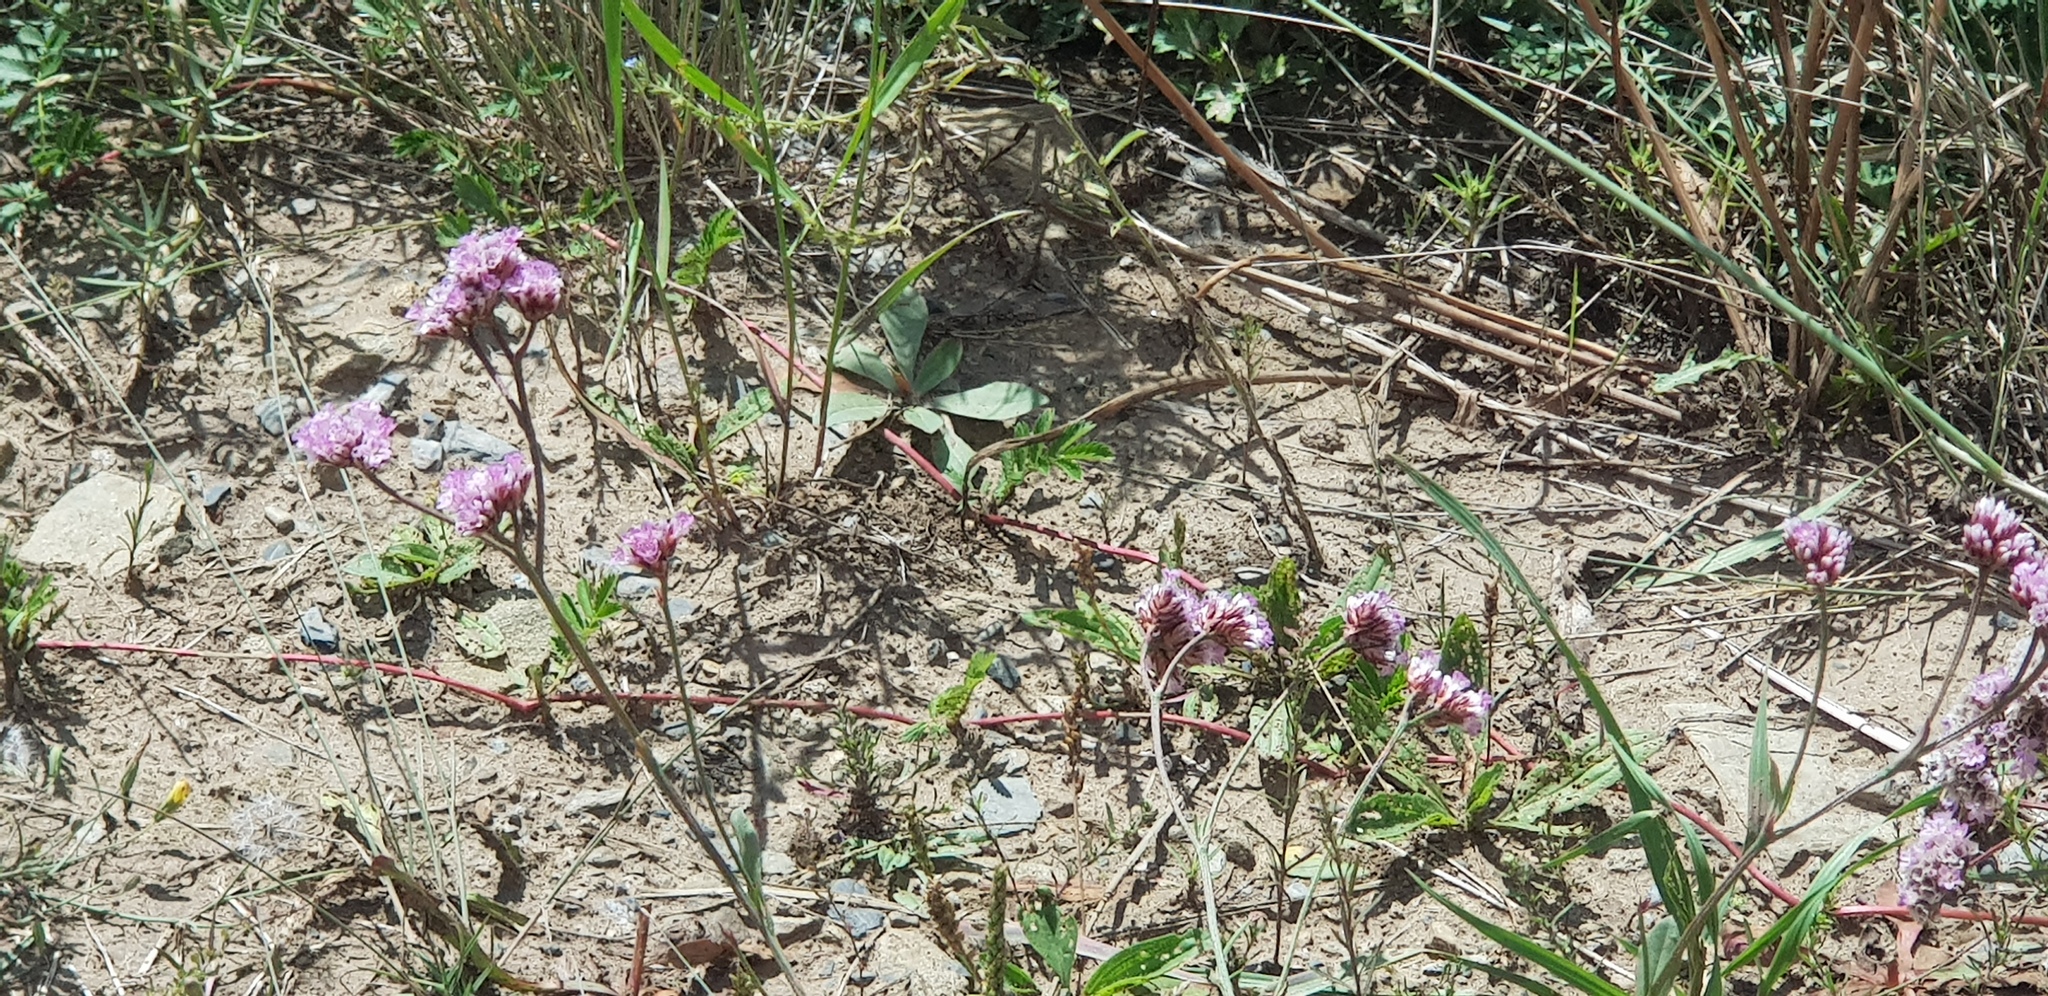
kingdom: Plantae
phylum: Tracheophyta
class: Magnoliopsida
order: Caryophyllales
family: Plumbaginaceae
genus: Goniolimon
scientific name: Goniolimon speciosum
